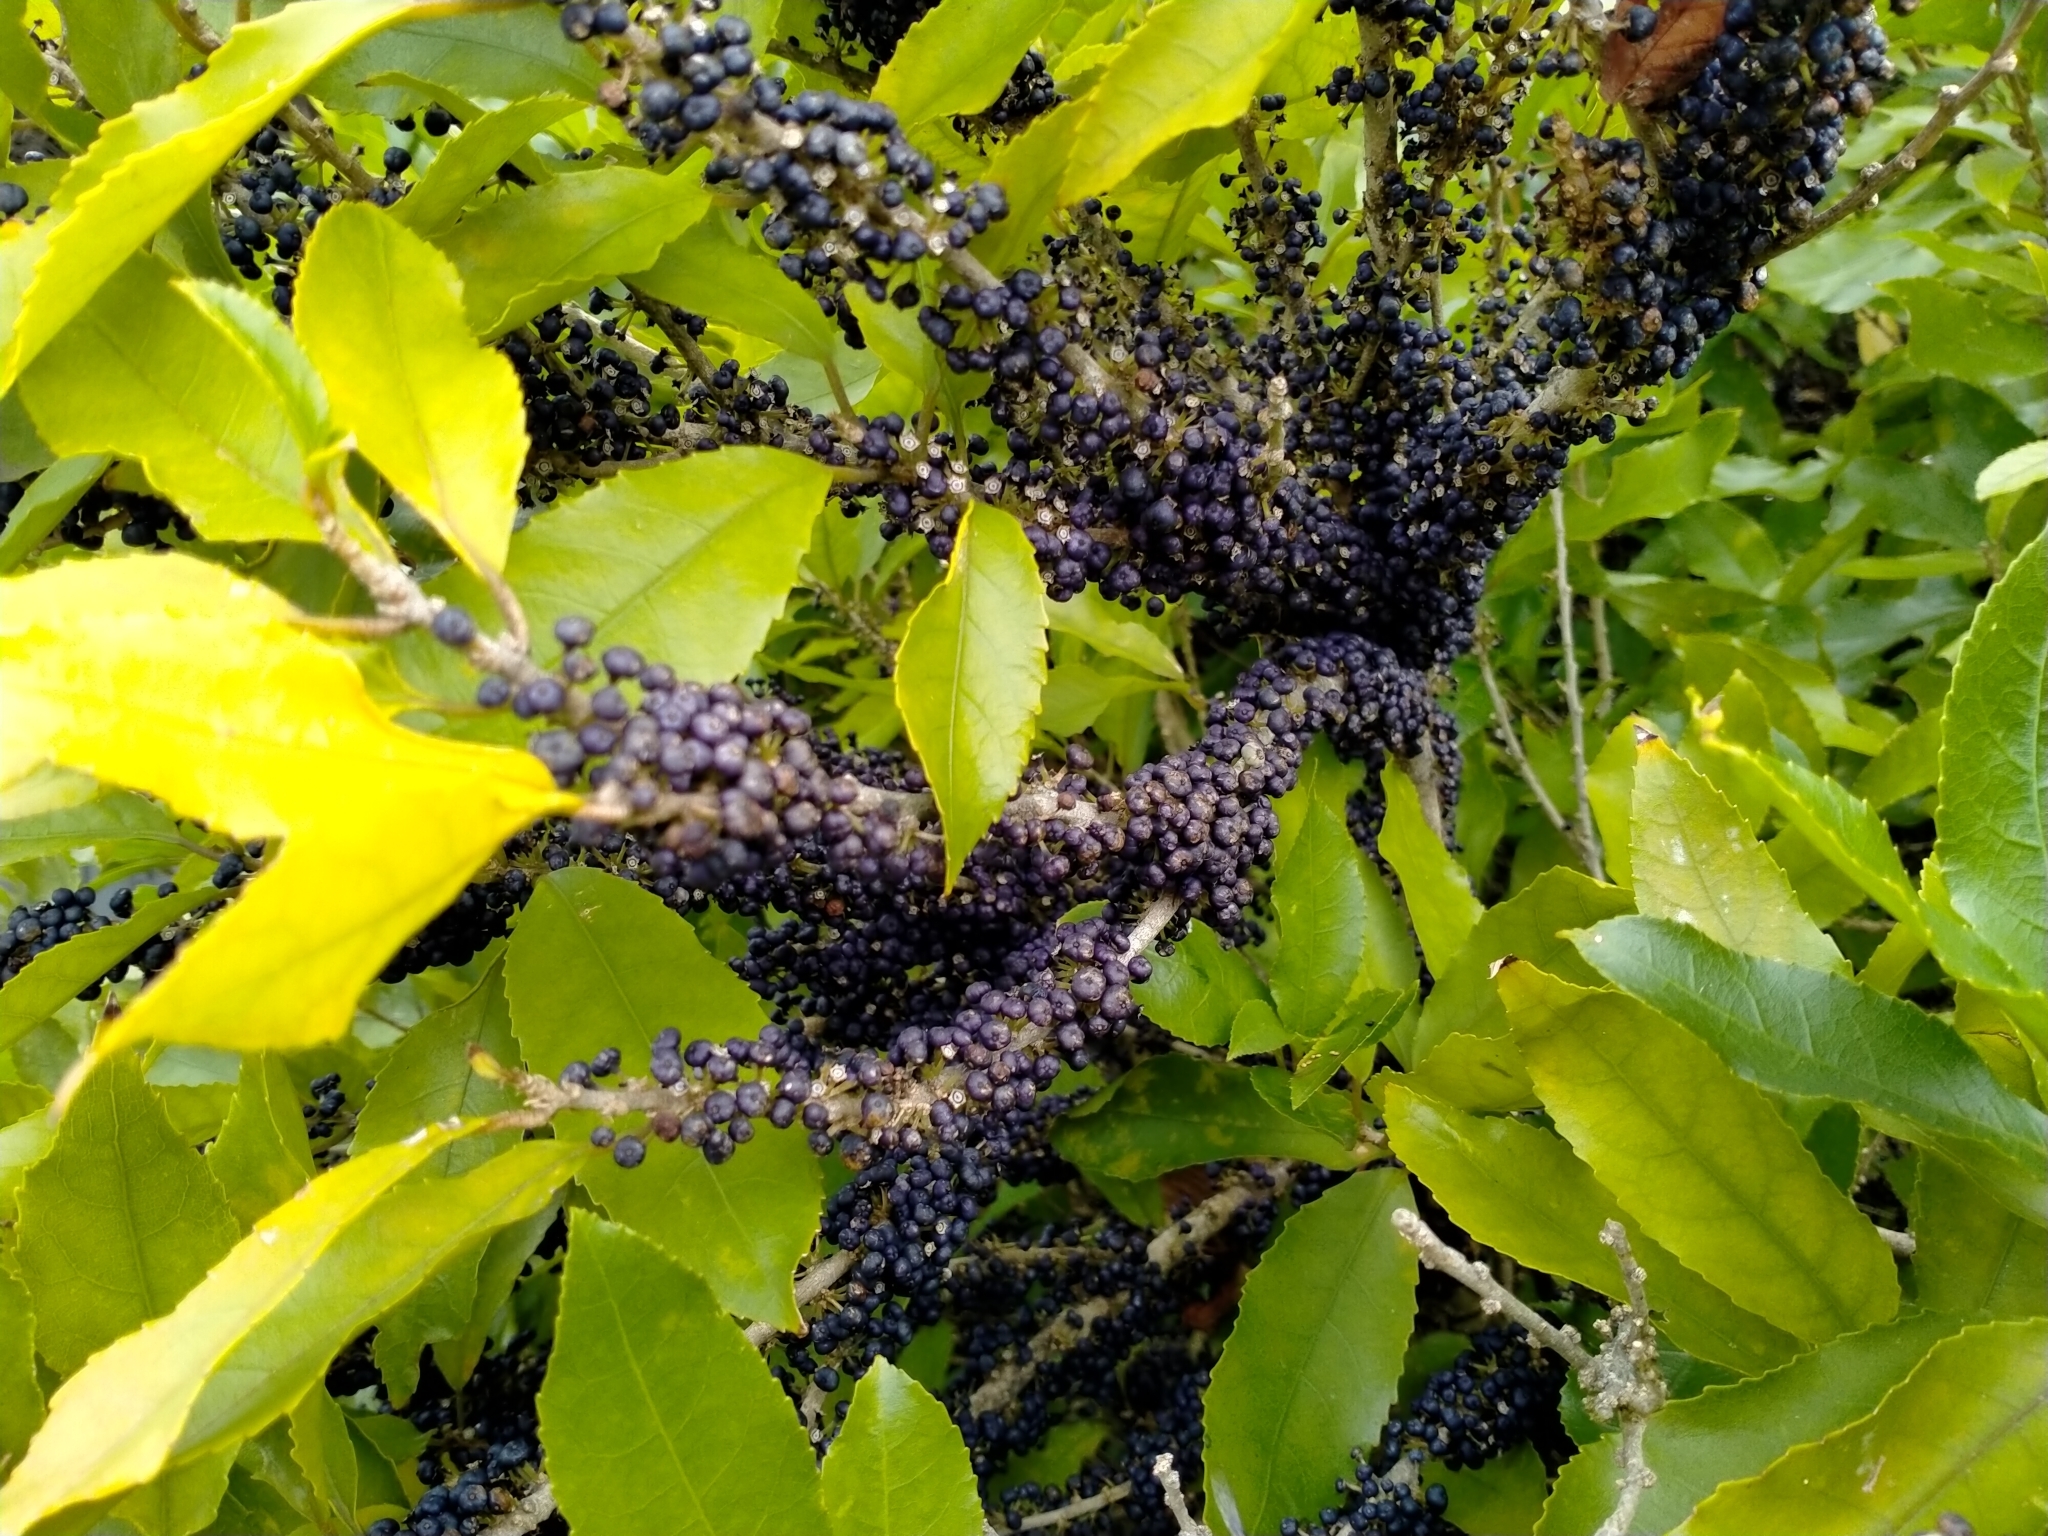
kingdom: Plantae
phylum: Tracheophyta
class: Magnoliopsida
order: Malpighiales
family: Violaceae
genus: Melicytus
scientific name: Melicytus ramiflorus
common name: Mahoe
